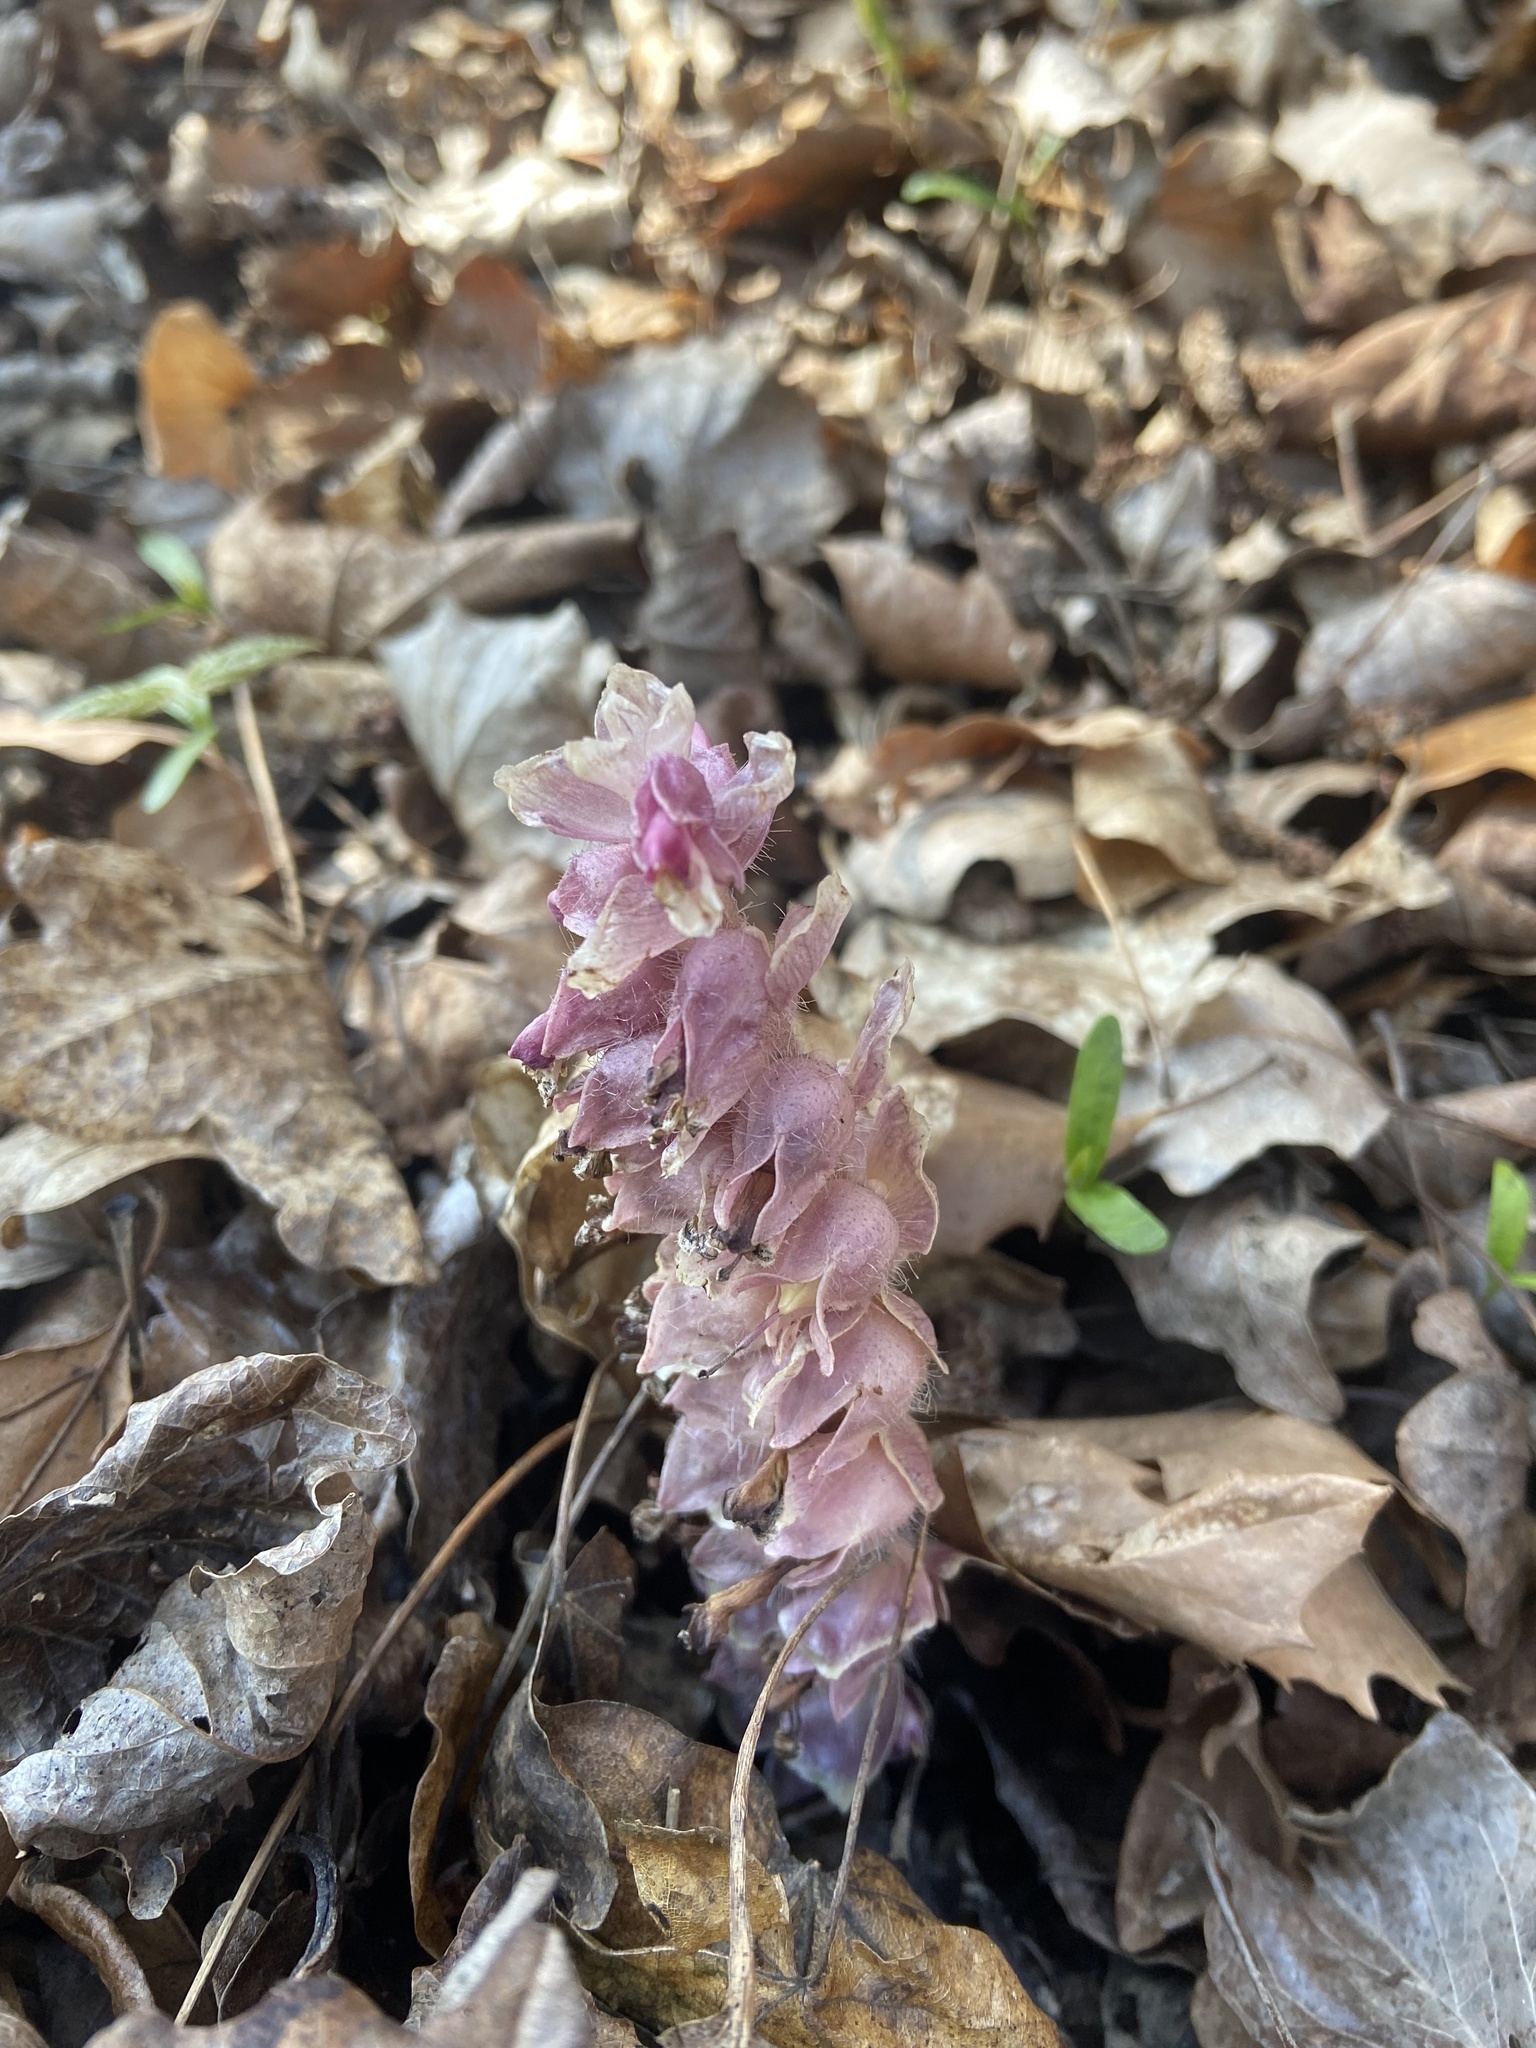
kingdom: Plantae
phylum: Tracheophyta
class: Magnoliopsida
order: Lamiales
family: Orobanchaceae
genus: Lathraea
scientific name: Lathraea squamaria
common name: Toothwort
